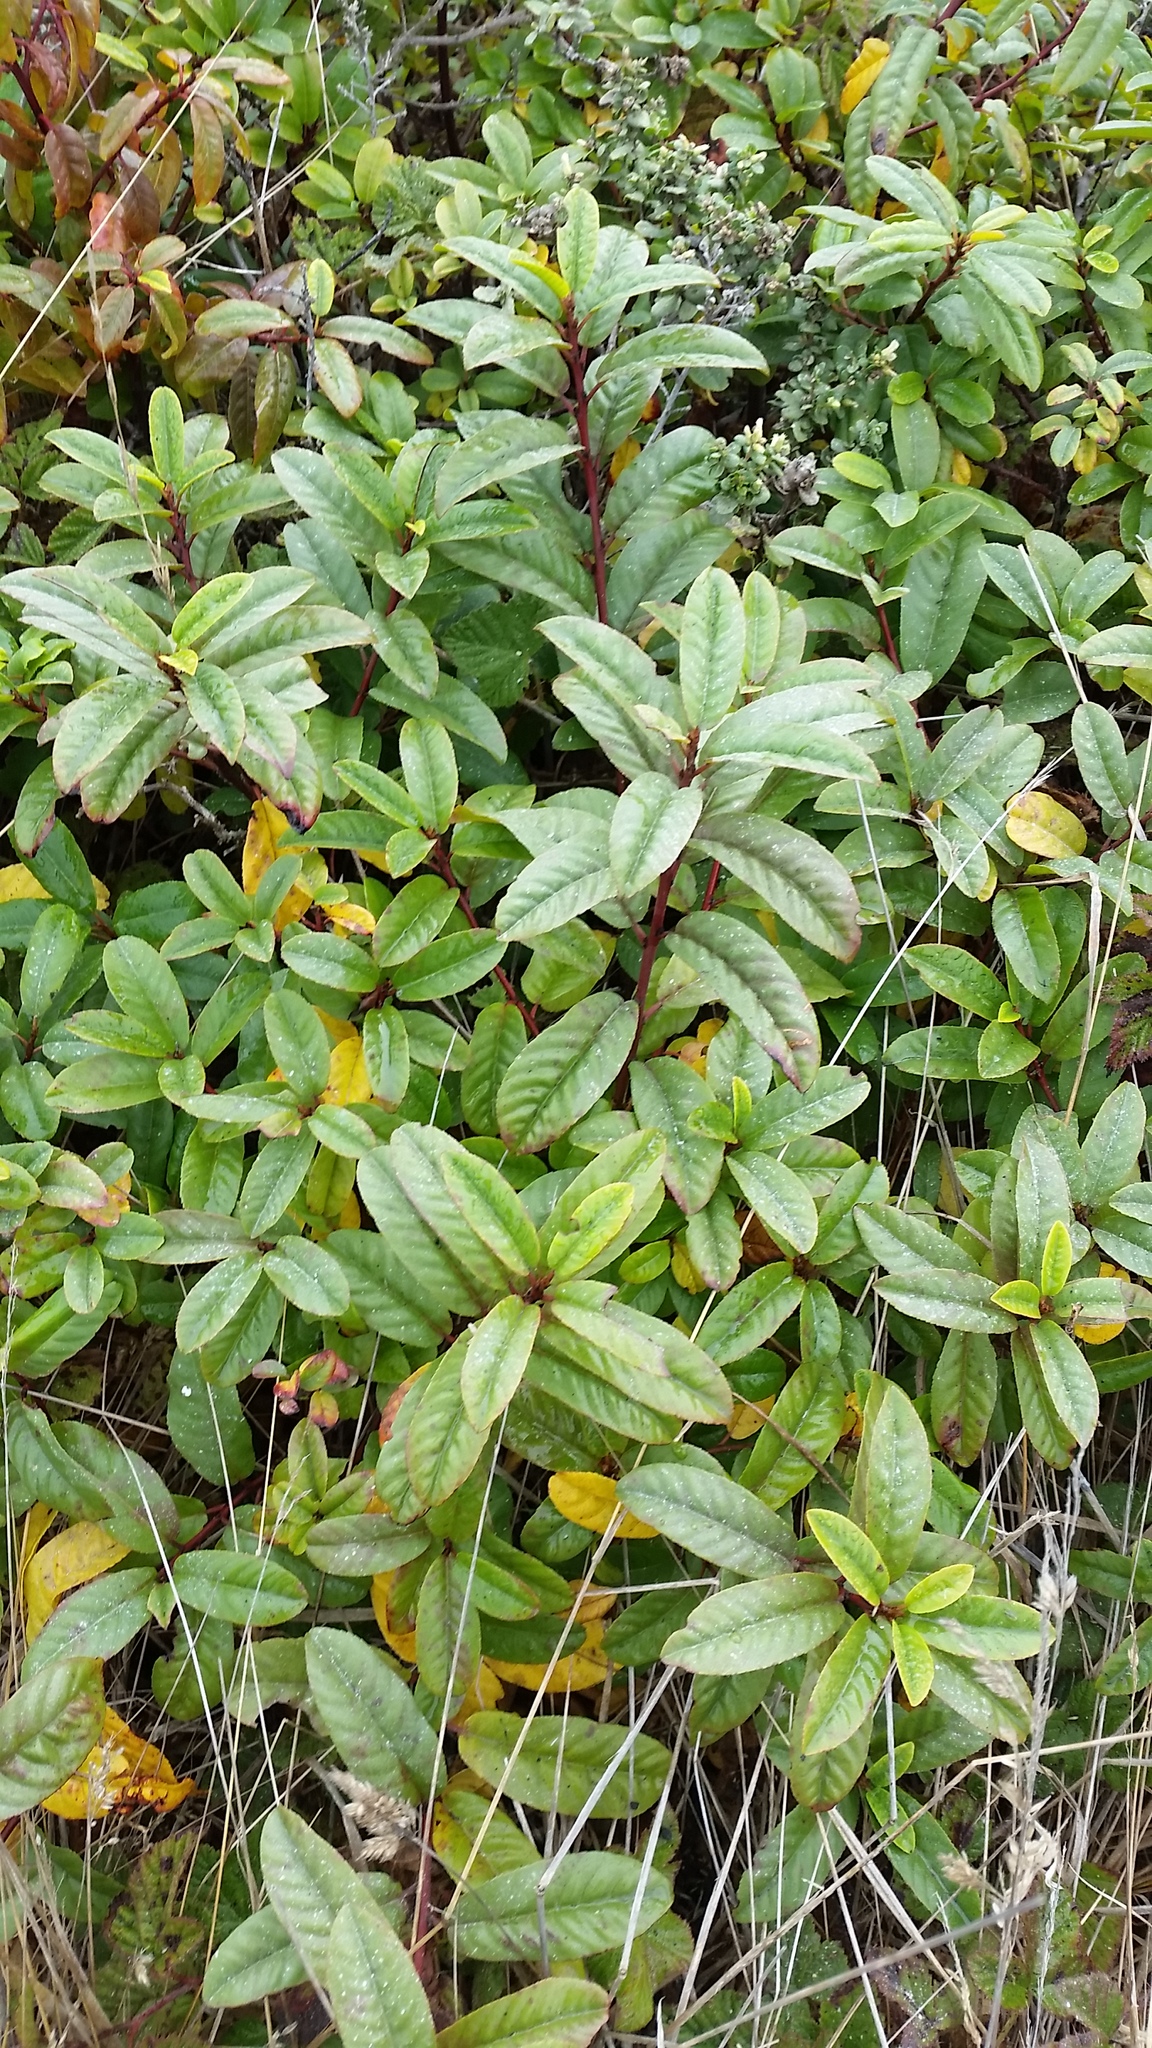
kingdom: Plantae
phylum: Tracheophyta
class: Magnoliopsida
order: Rosales
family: Rhamnaceae
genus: Frangula
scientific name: Frangula californica
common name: California buckthorn
